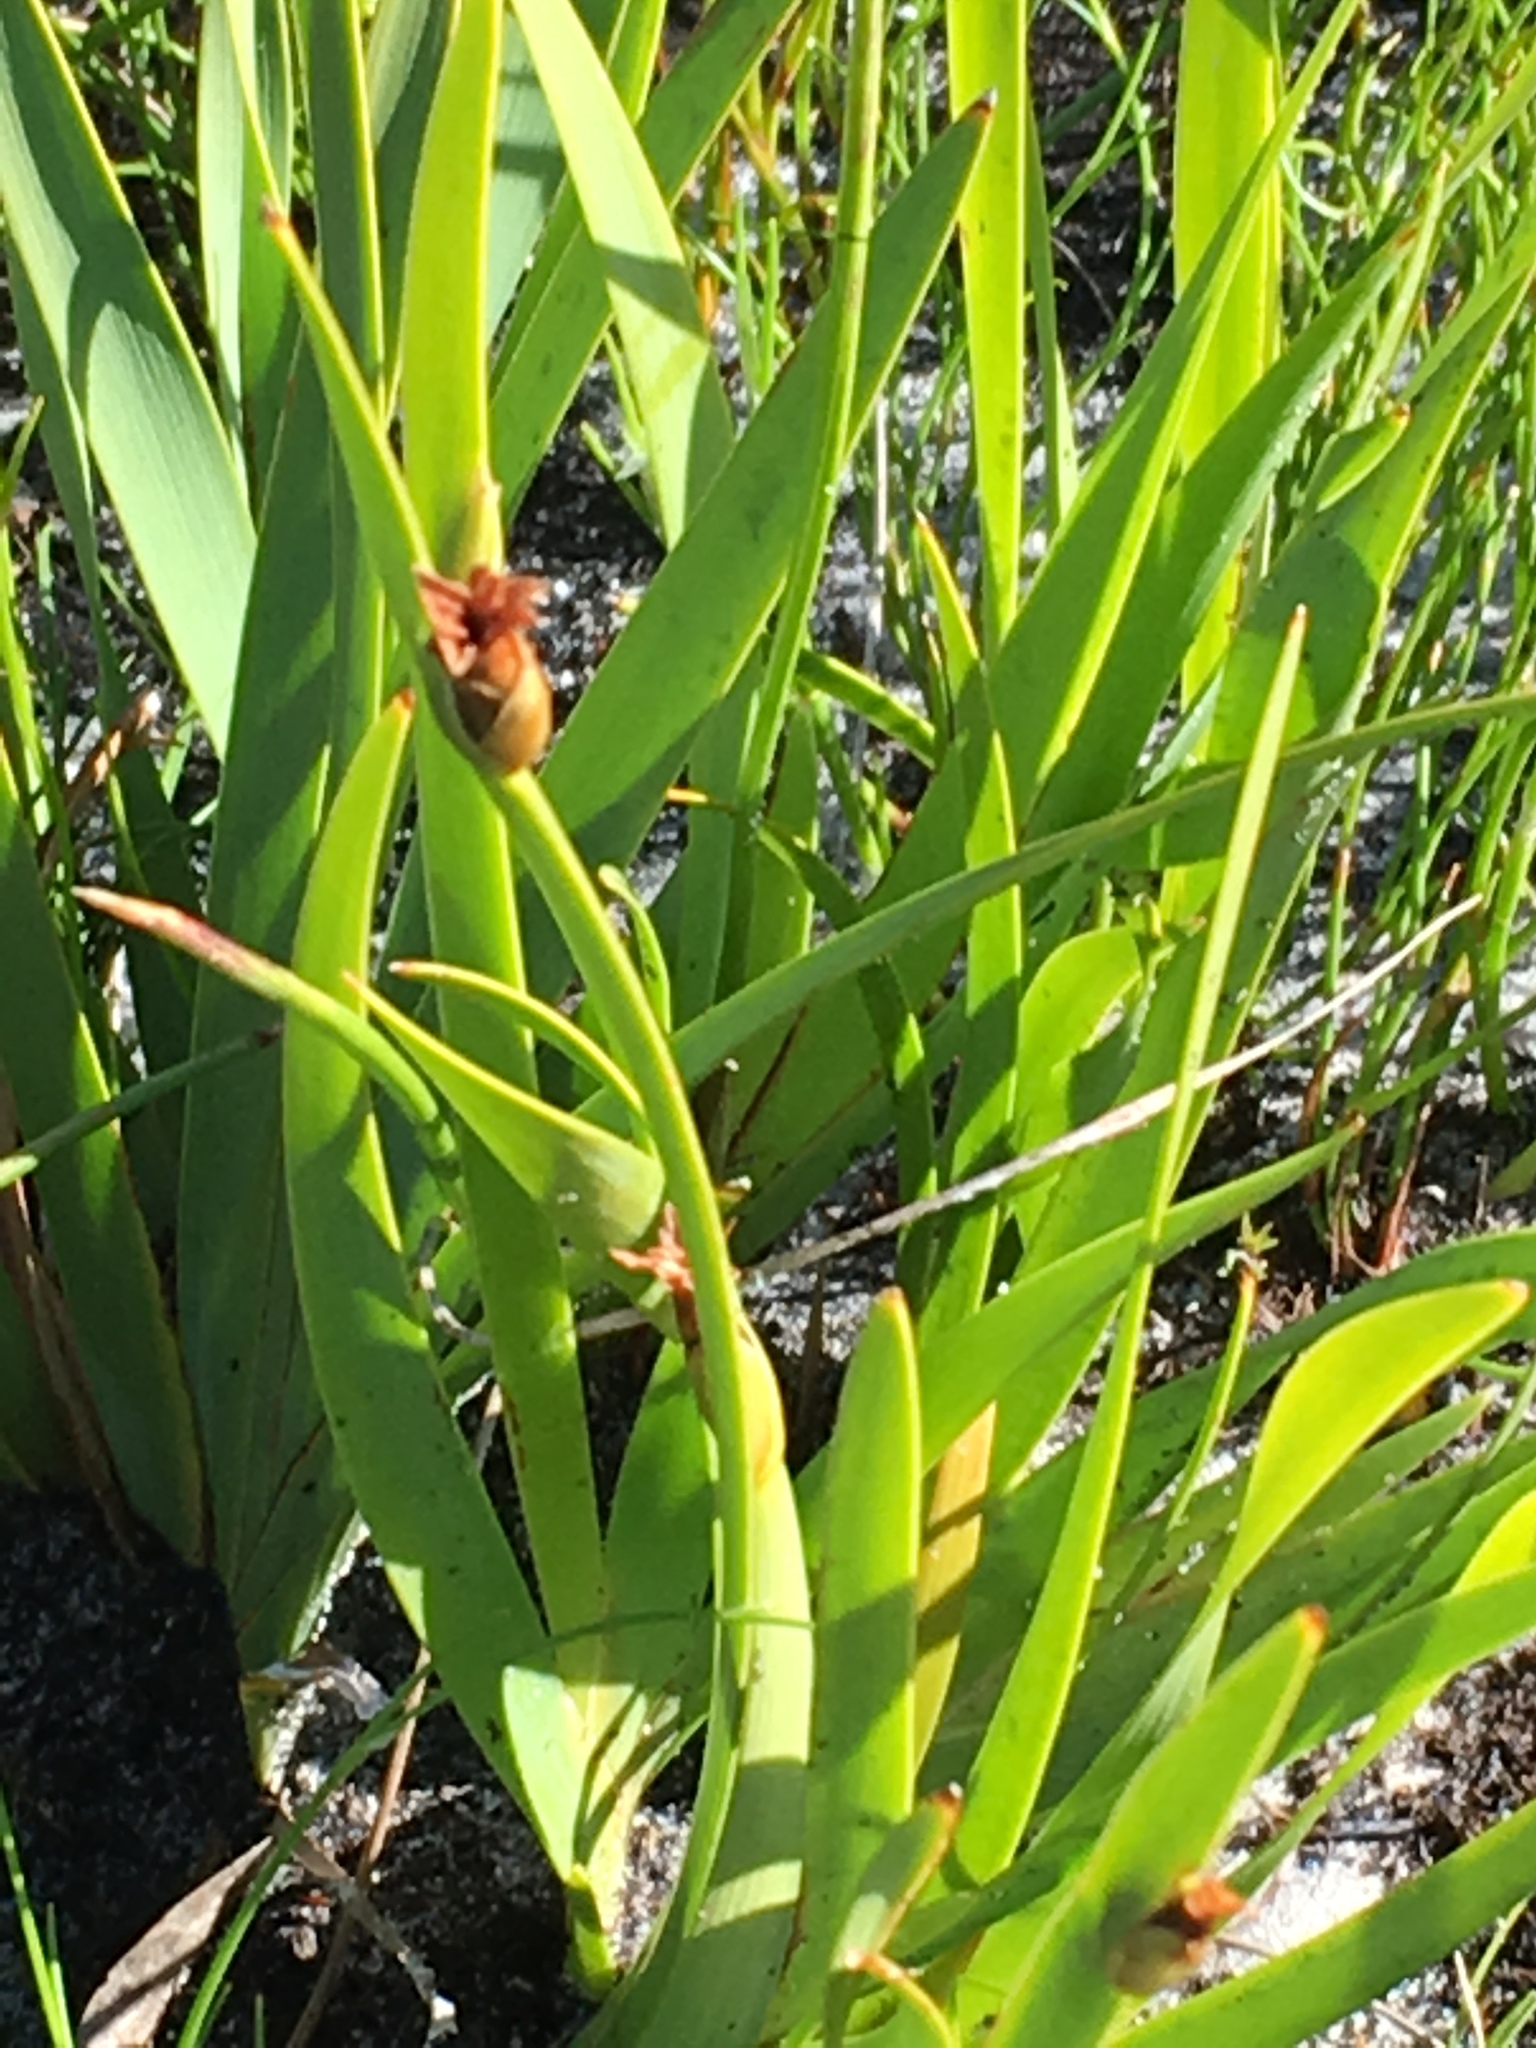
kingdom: Plantae
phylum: Tracheophyta
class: Liliopsida
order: Poales
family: Cyperaceae
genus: Chrysitrix
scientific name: Chrysitrix capensis
